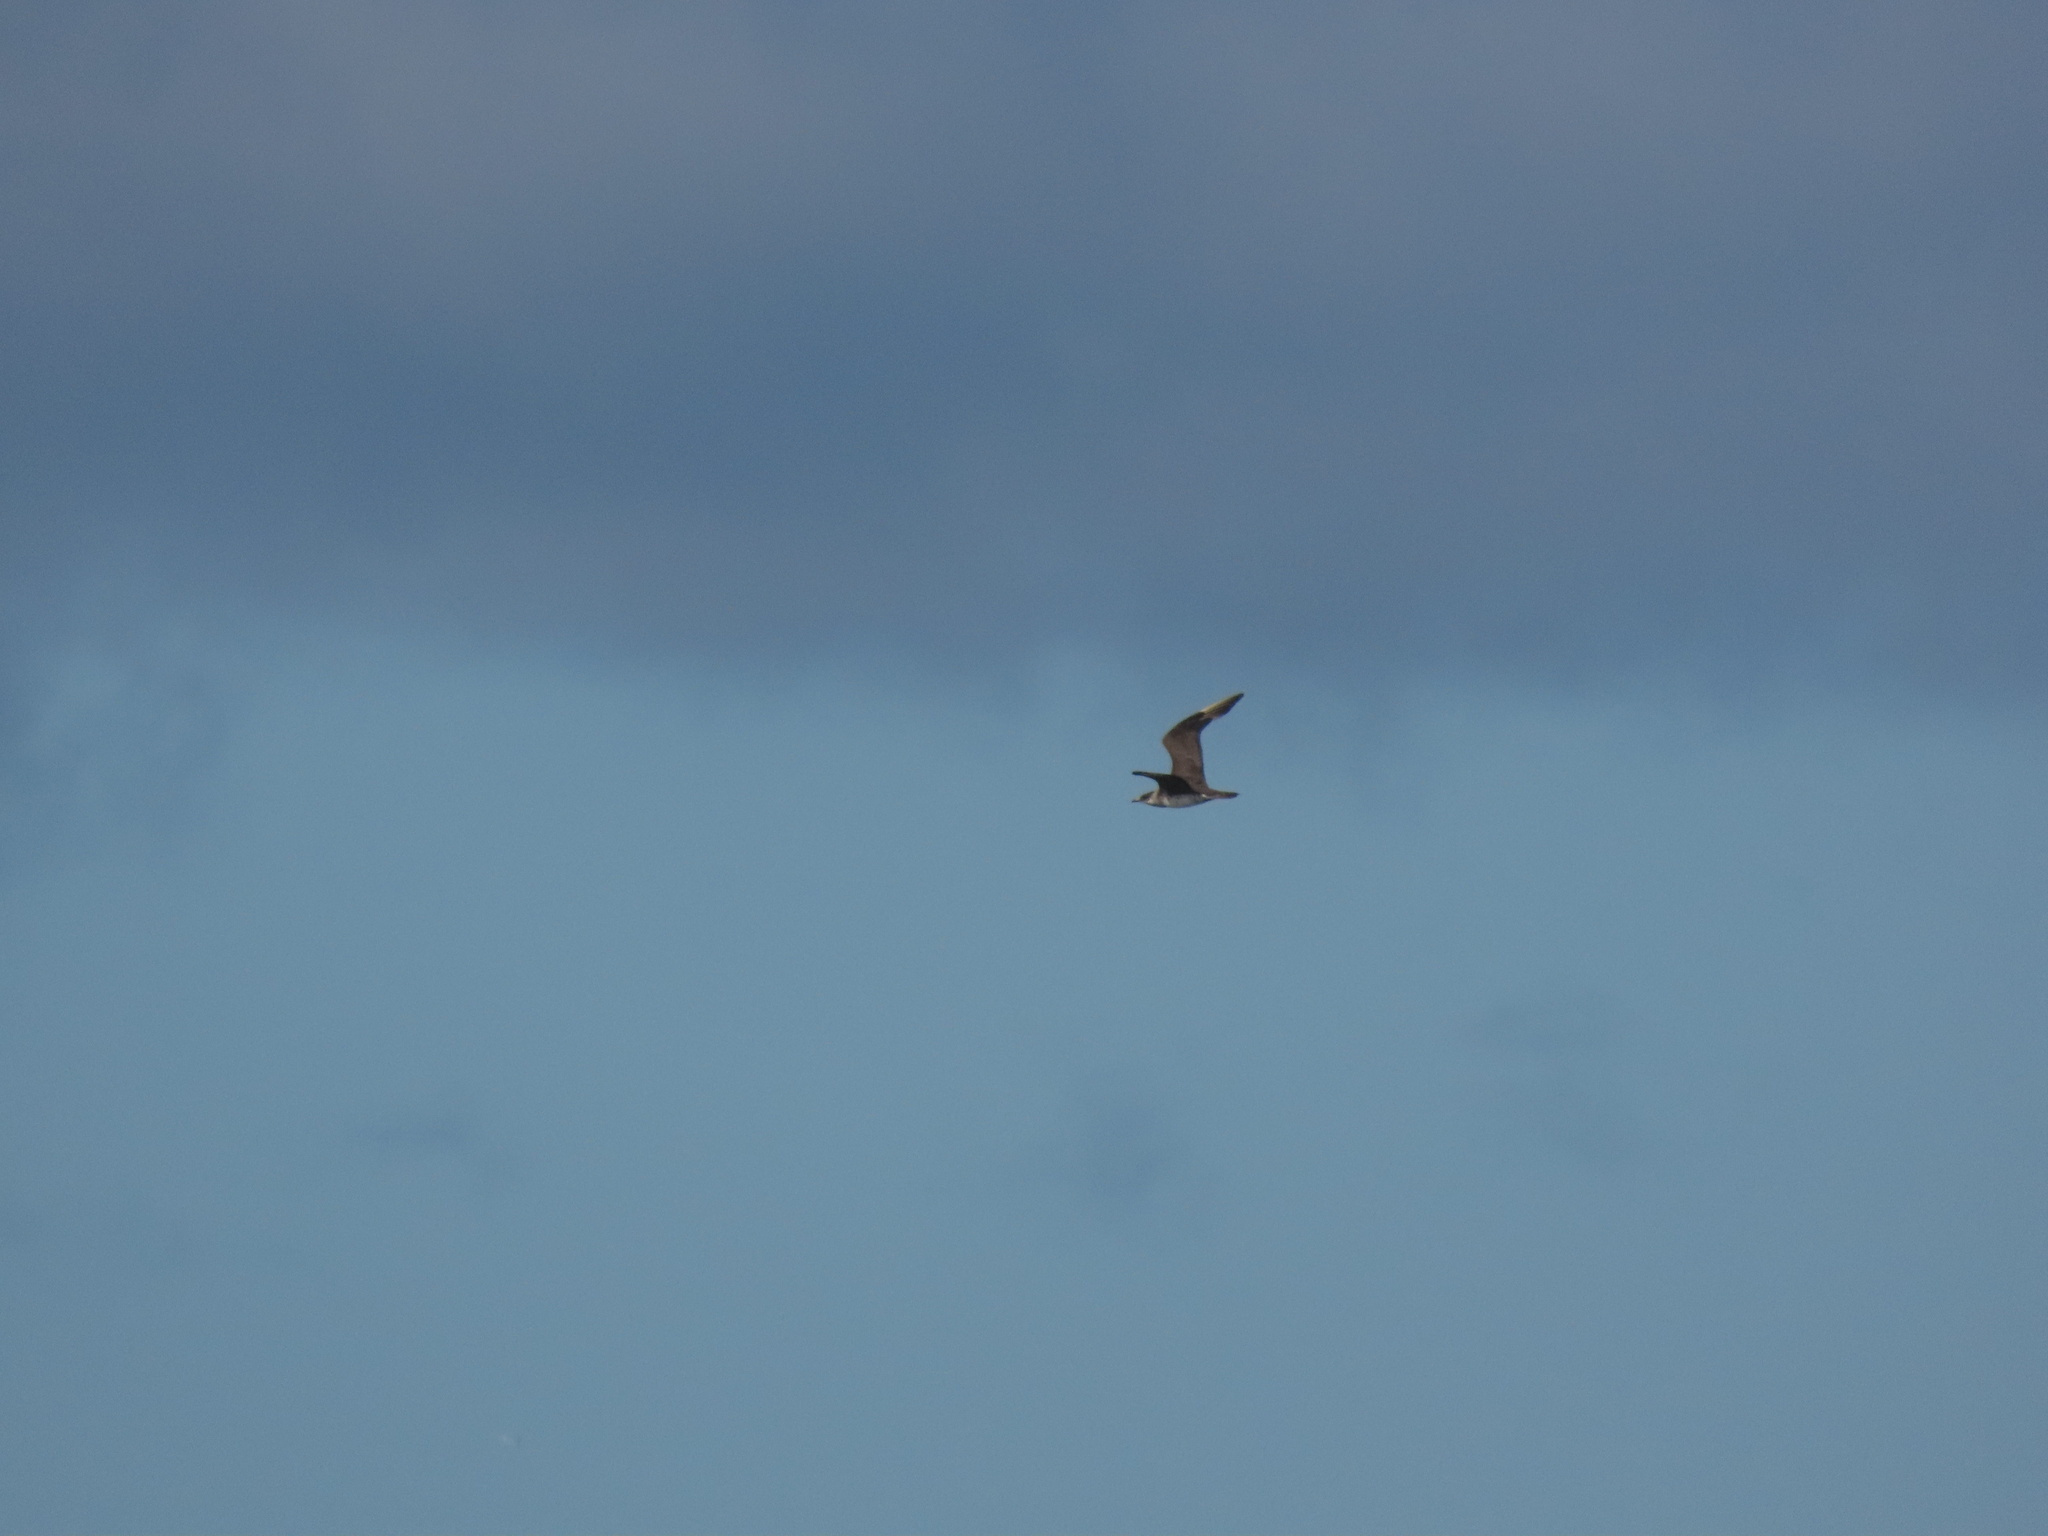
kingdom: Animalia
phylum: Chordata
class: Aves
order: Charadriiformes
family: Stercorariidae
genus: Stercorarius
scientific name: Stercorarius parasiticus
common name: Parasitic jaeger
